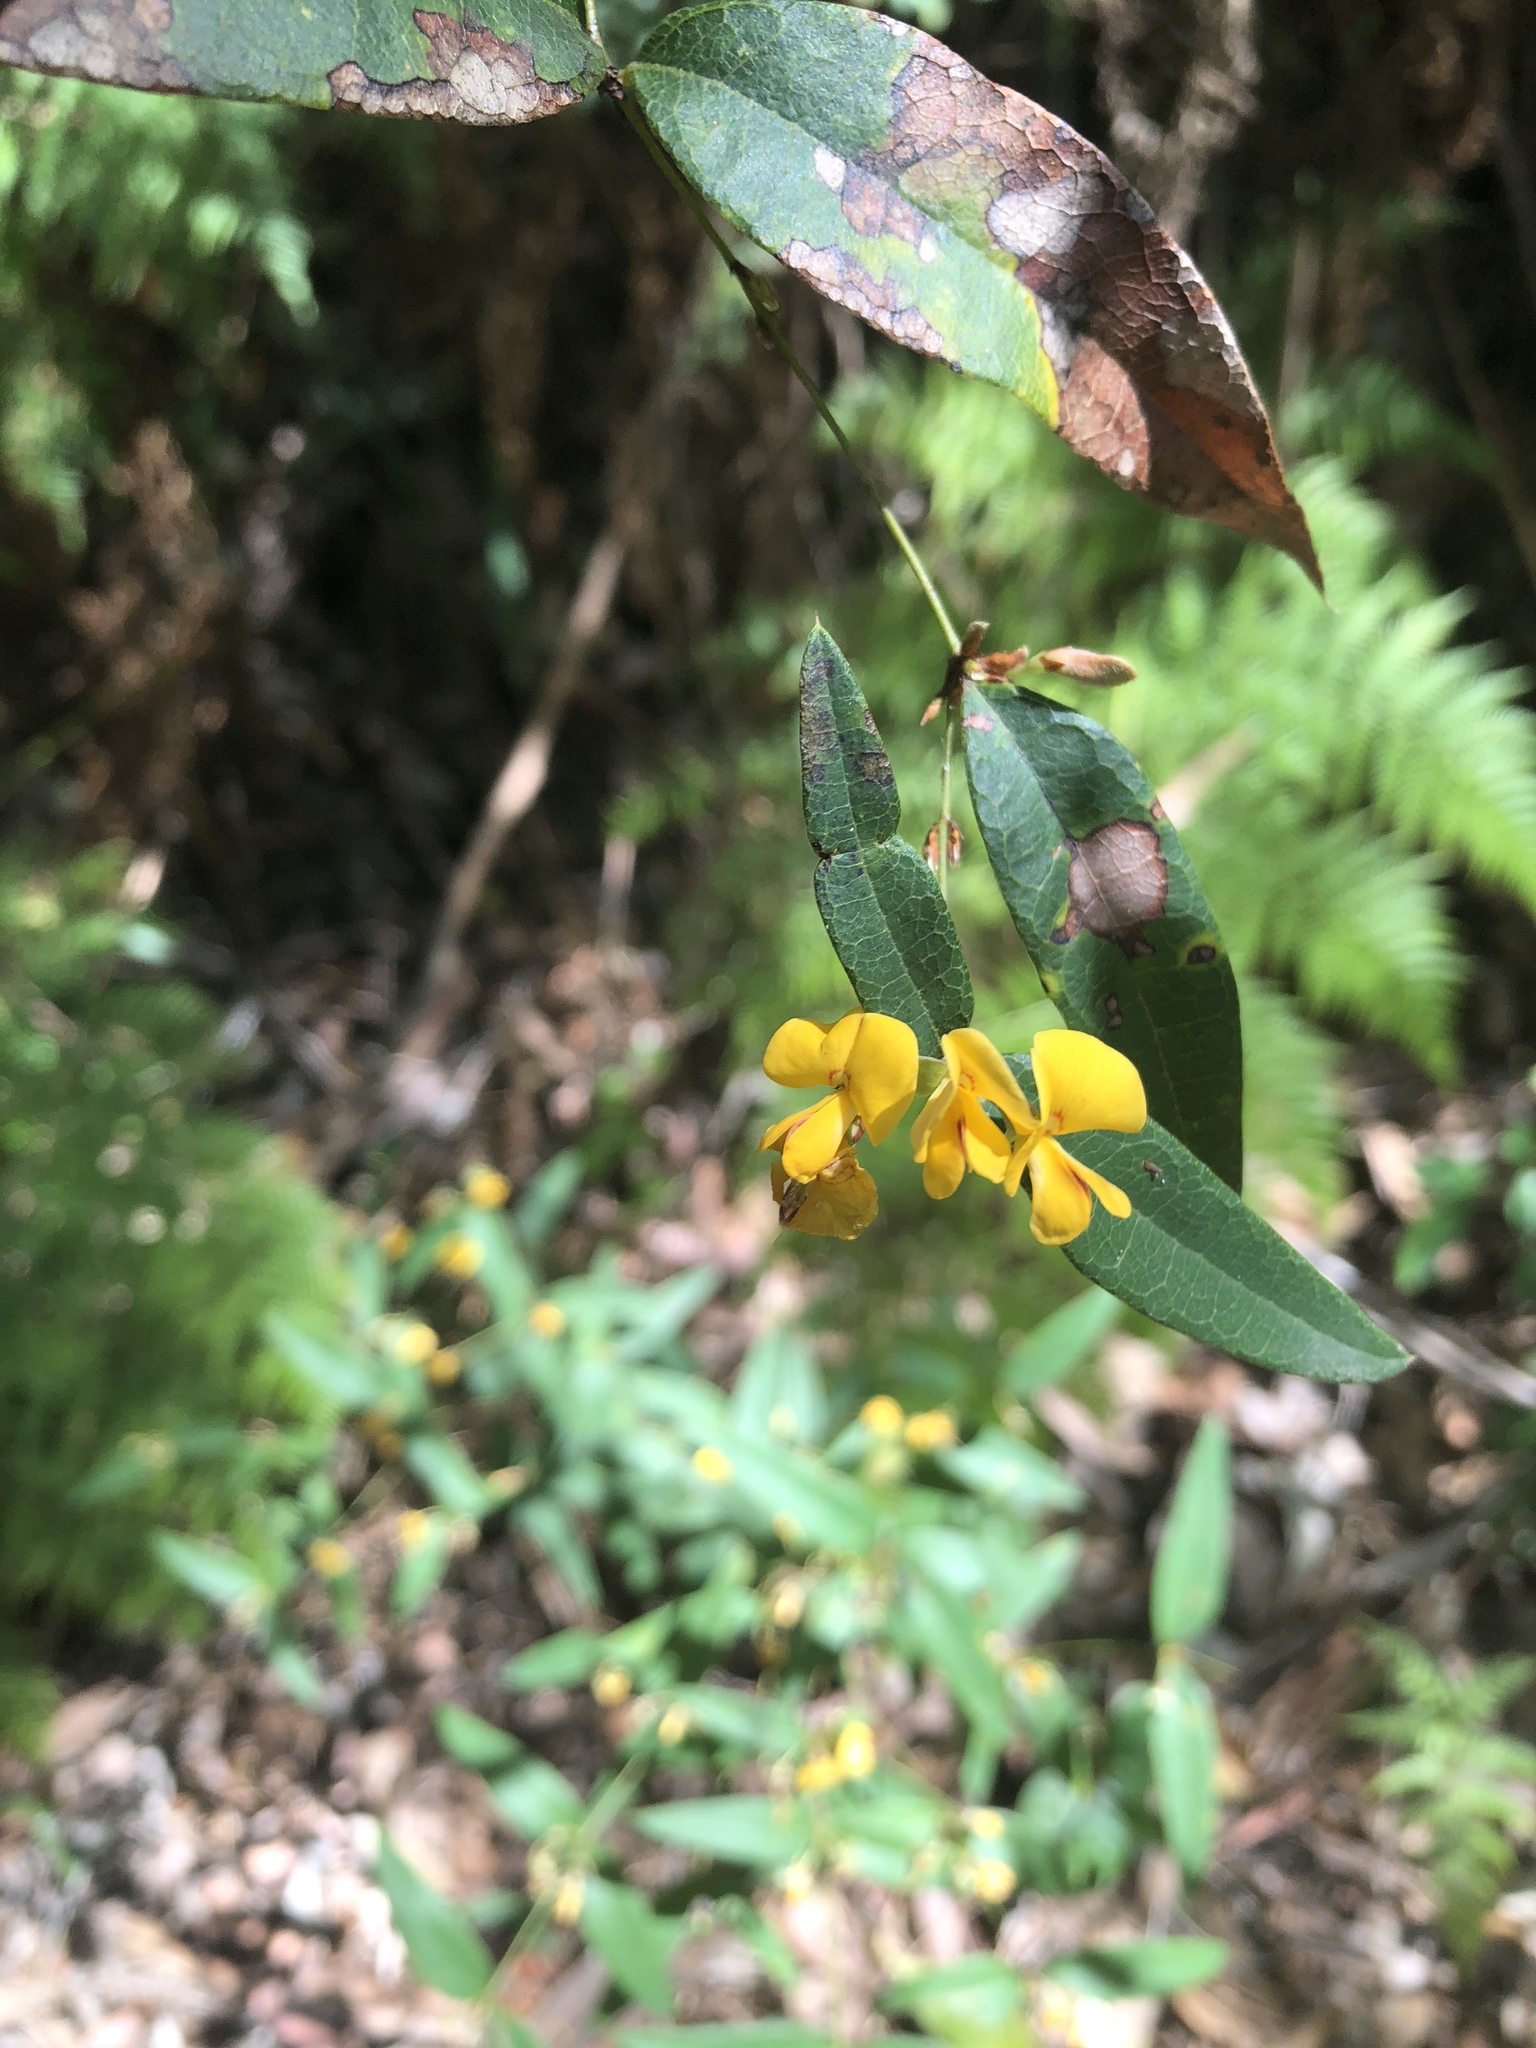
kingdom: Plantae
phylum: Tracheophyta
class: Magnoliopsida
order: Fabales
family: Fabaceae
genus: Platylobium
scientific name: Platylobium formosum
